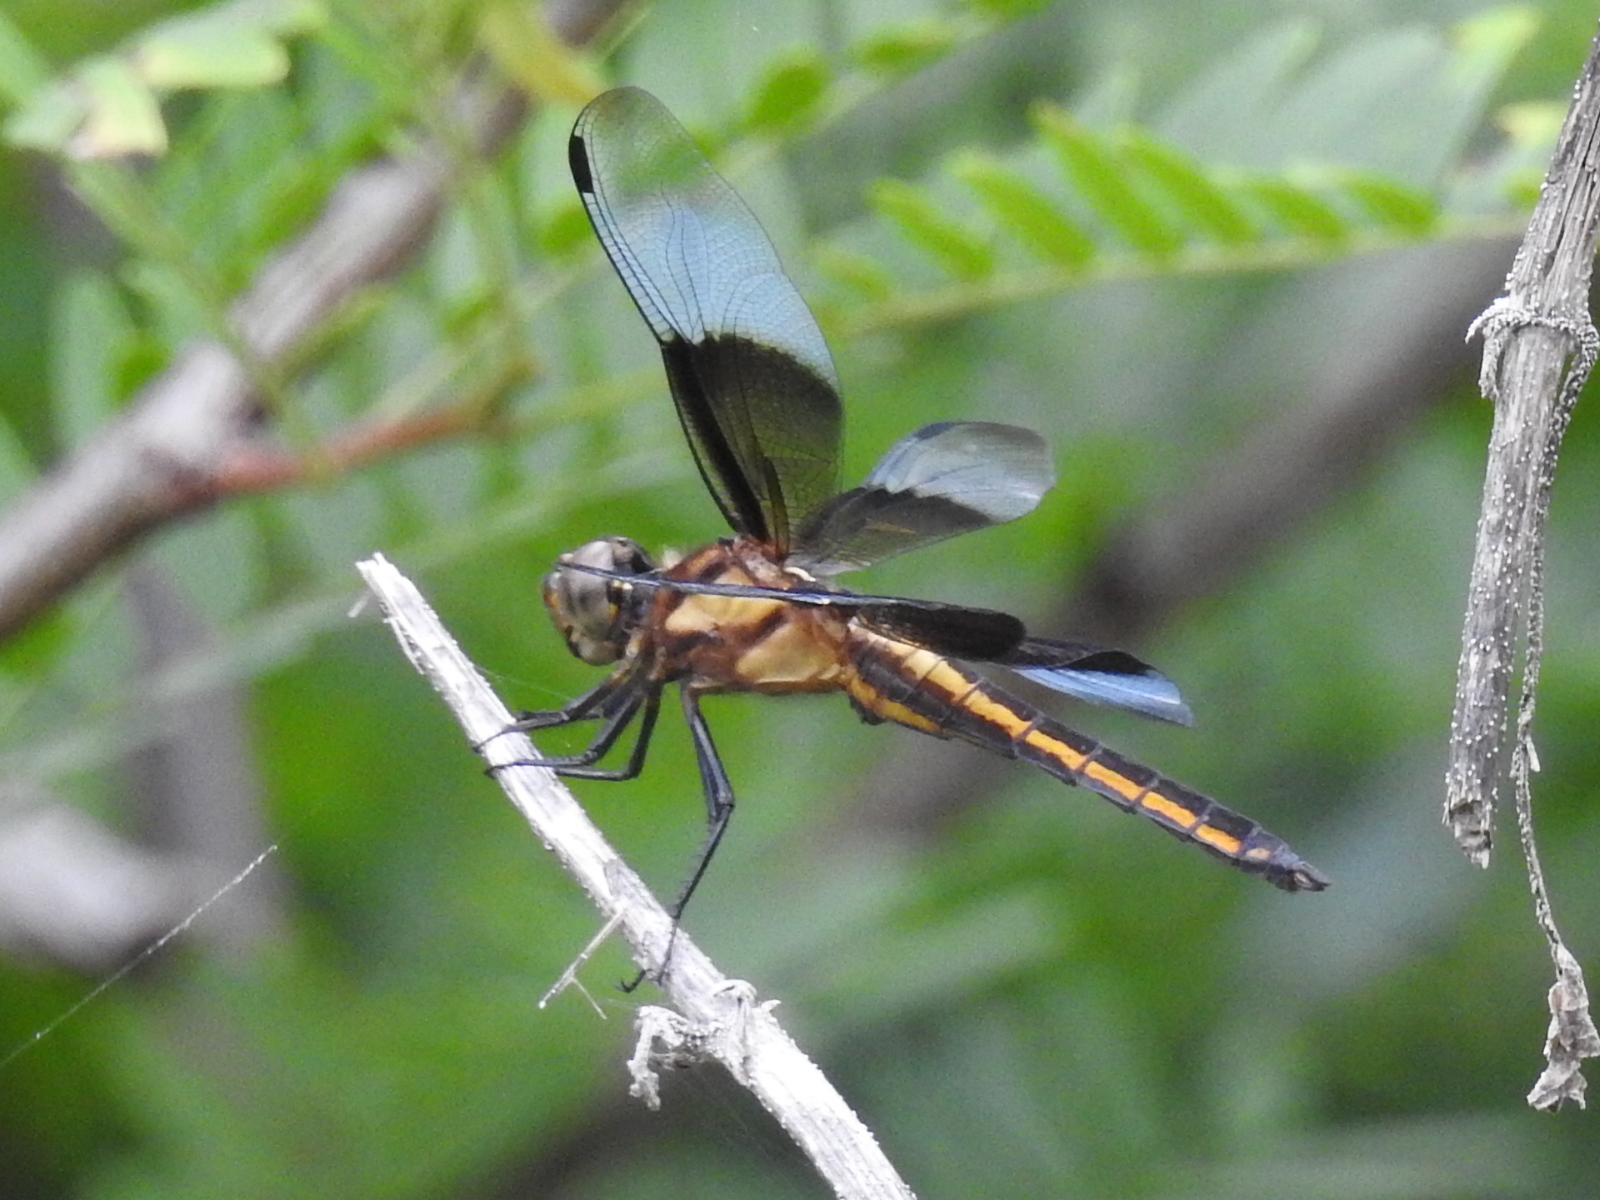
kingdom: Animalia
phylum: Arthropoda
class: Insecta
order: Odonata
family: Libellulidae
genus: Libellula
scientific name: Libellula luctuosa
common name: Widow skimmer
